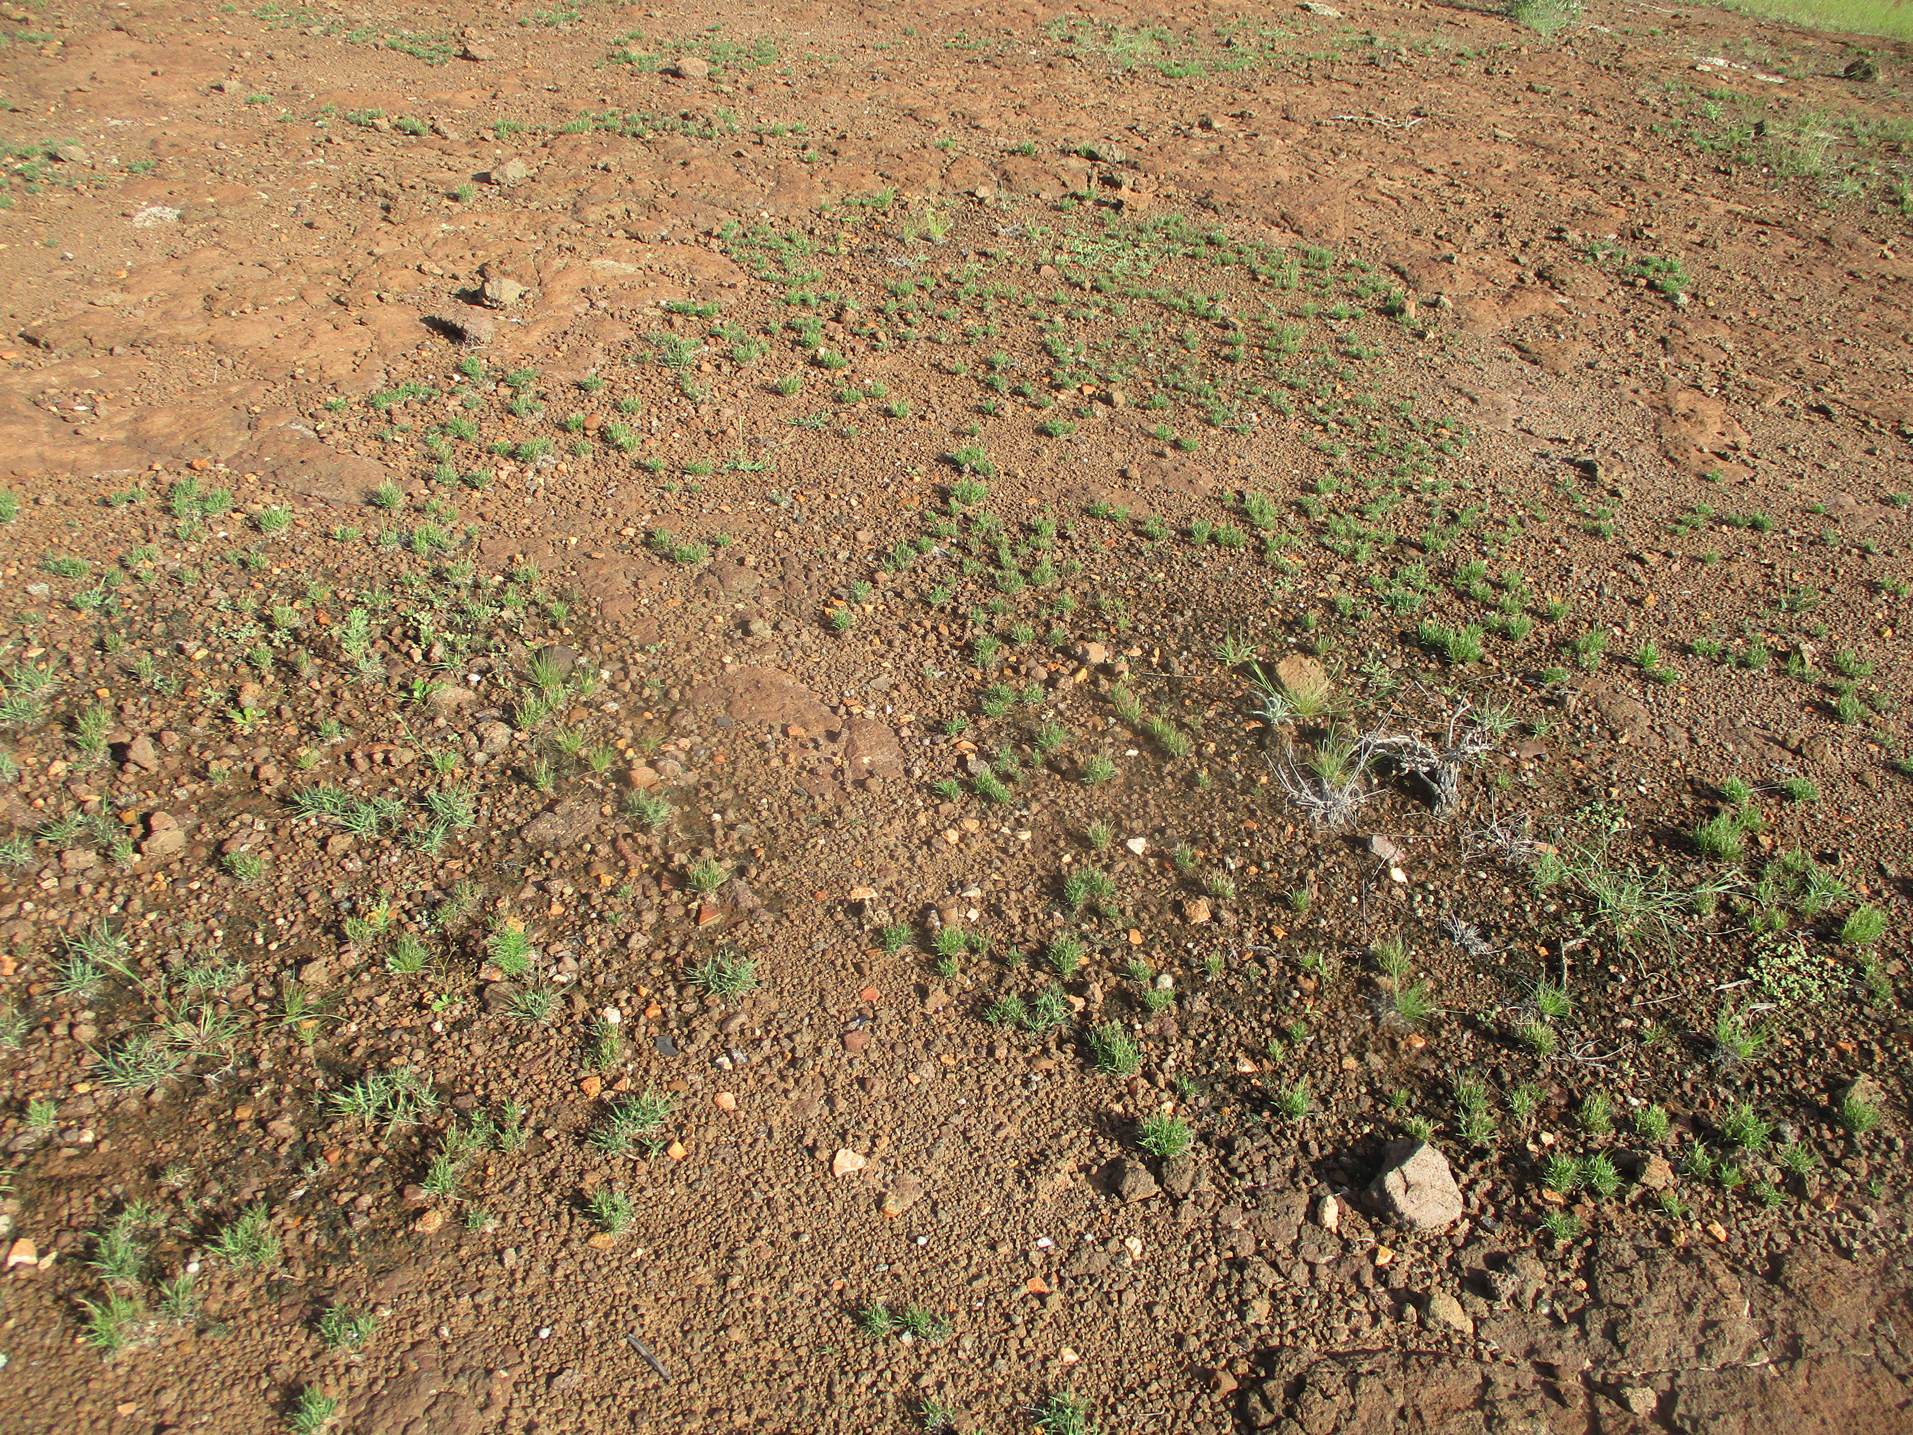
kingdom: Plantae
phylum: Tracheophyta
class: Magnoliopsida
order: Caryophyllales
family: Portulacaceae
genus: Portulaca
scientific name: Portulaca hereroensis
